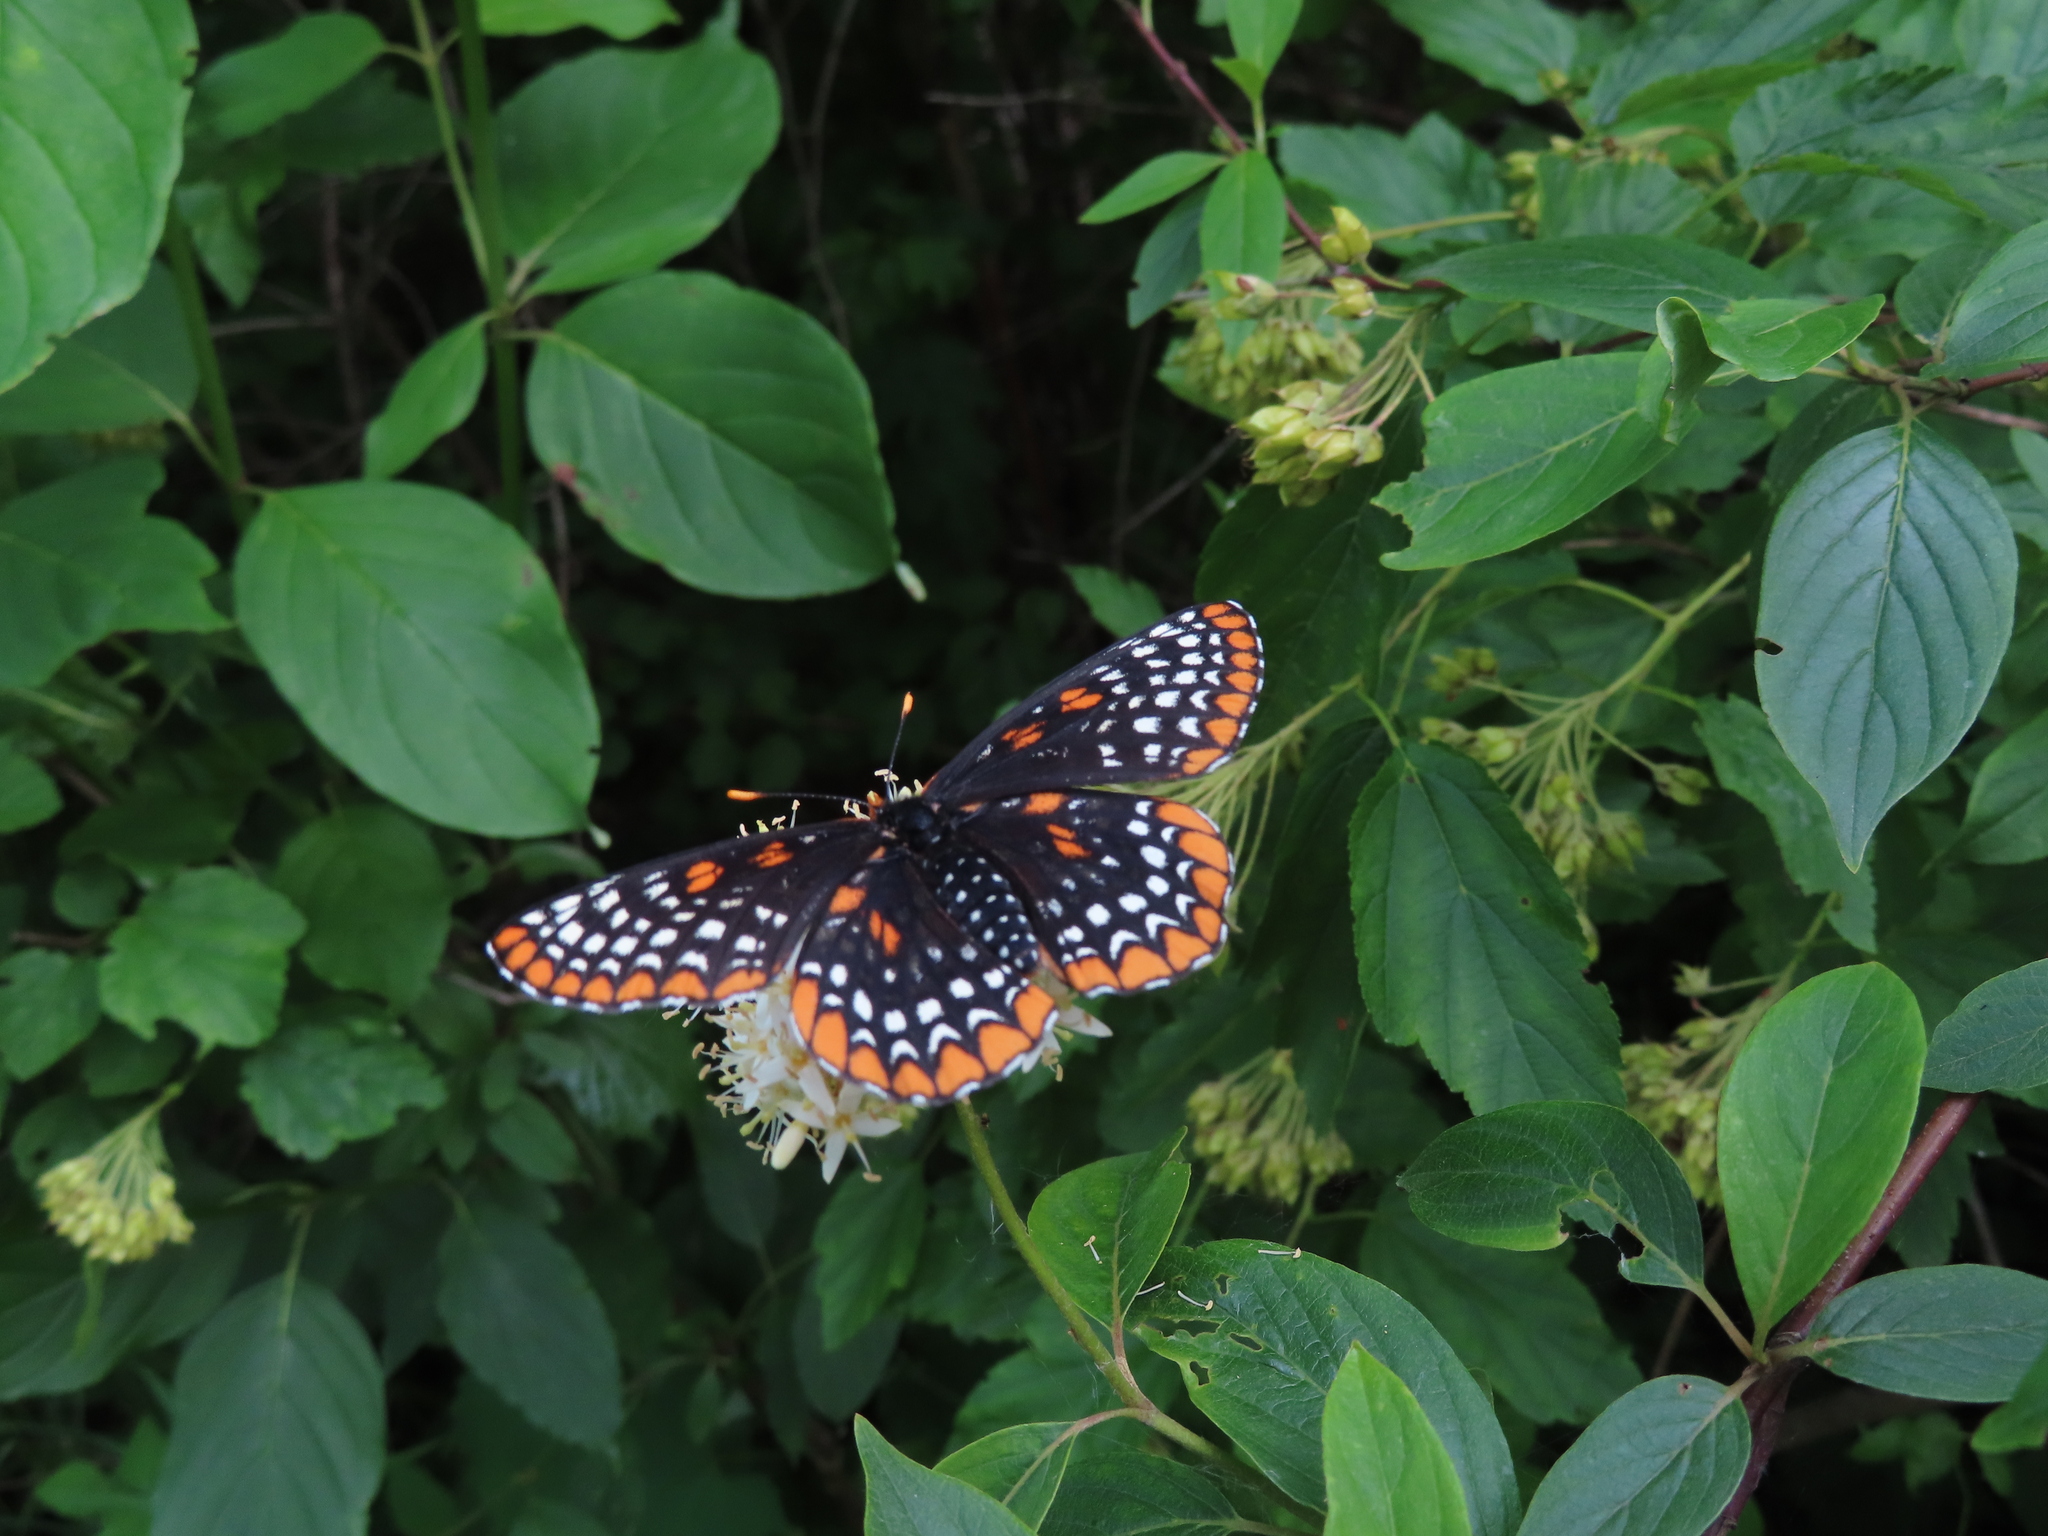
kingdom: Animalia
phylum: Arthropoda
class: Insecta
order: Lepidoptera
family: Nymphalidae
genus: Euphydryas
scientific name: Euphydryas phaeton
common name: Baltimore checkerspot
